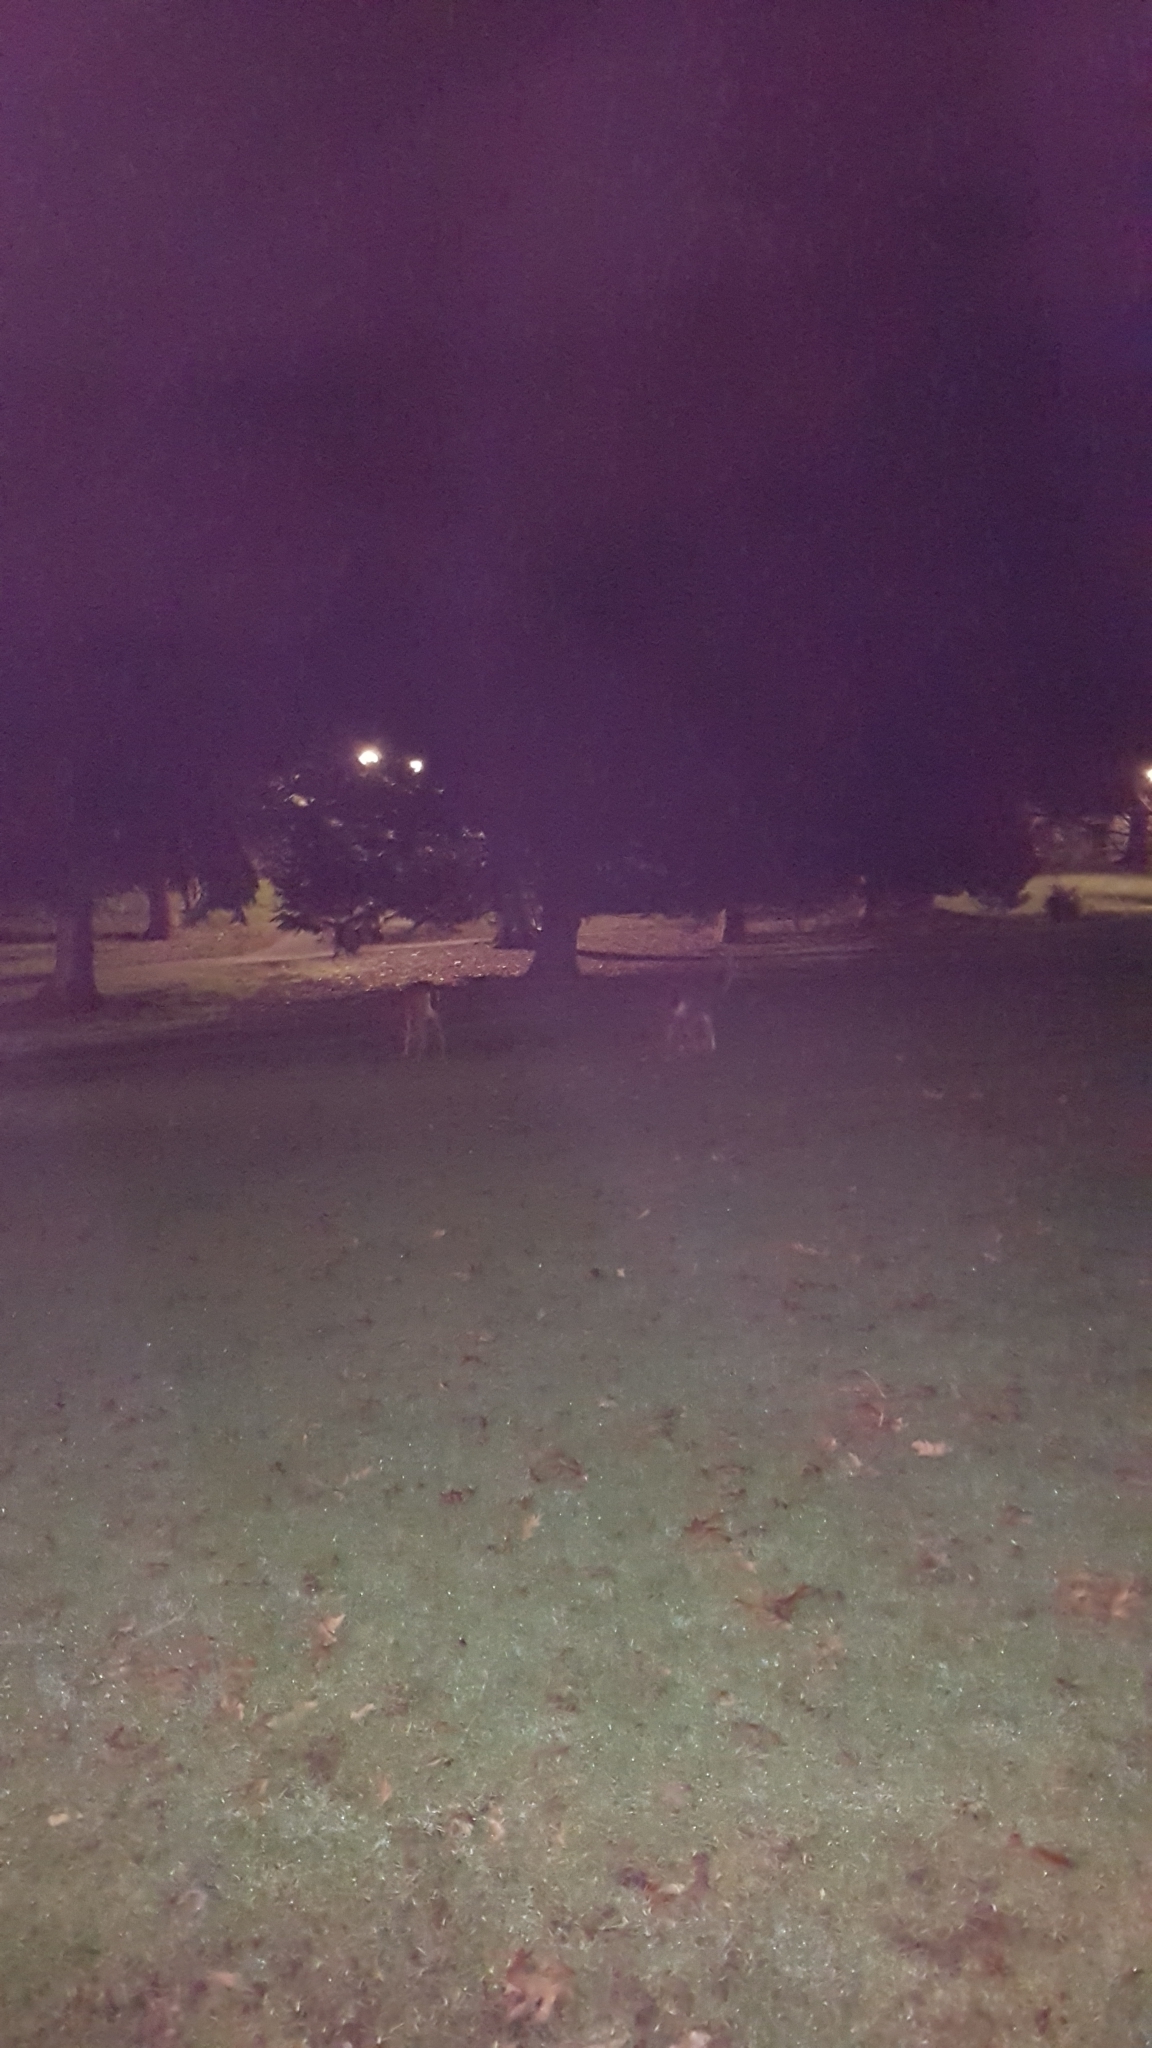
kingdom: Animalia
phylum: Chordata
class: Mammalia
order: Artiodactyla
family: Cervidae
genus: Odocoileus
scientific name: Odocoileus hemionus
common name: Mule deer
